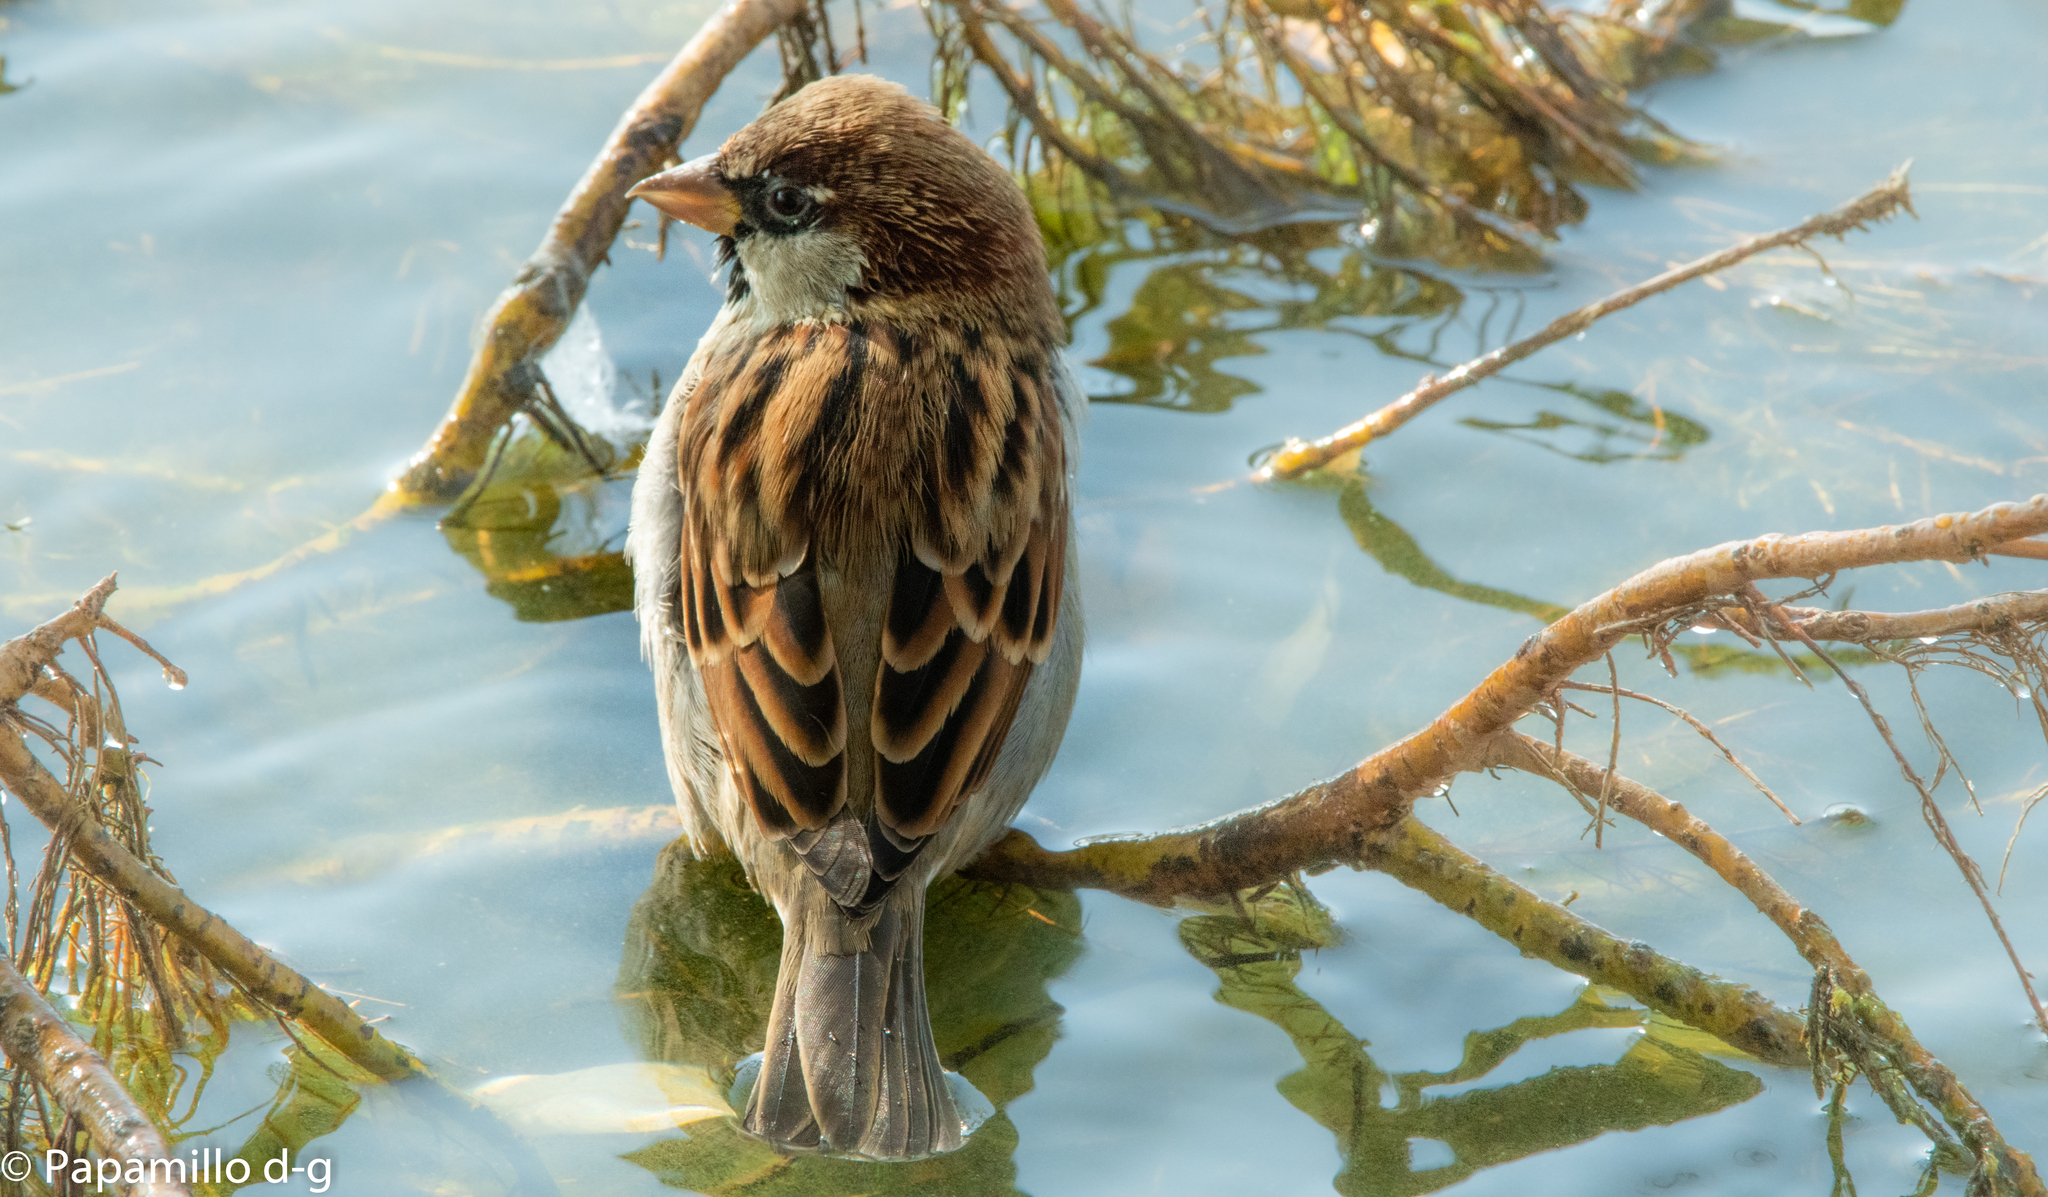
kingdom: Animalia
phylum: Chordata
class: Aves
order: Passeriformes
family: Passeridae
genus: Passer
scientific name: Passer italiae
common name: Italian sparrow
